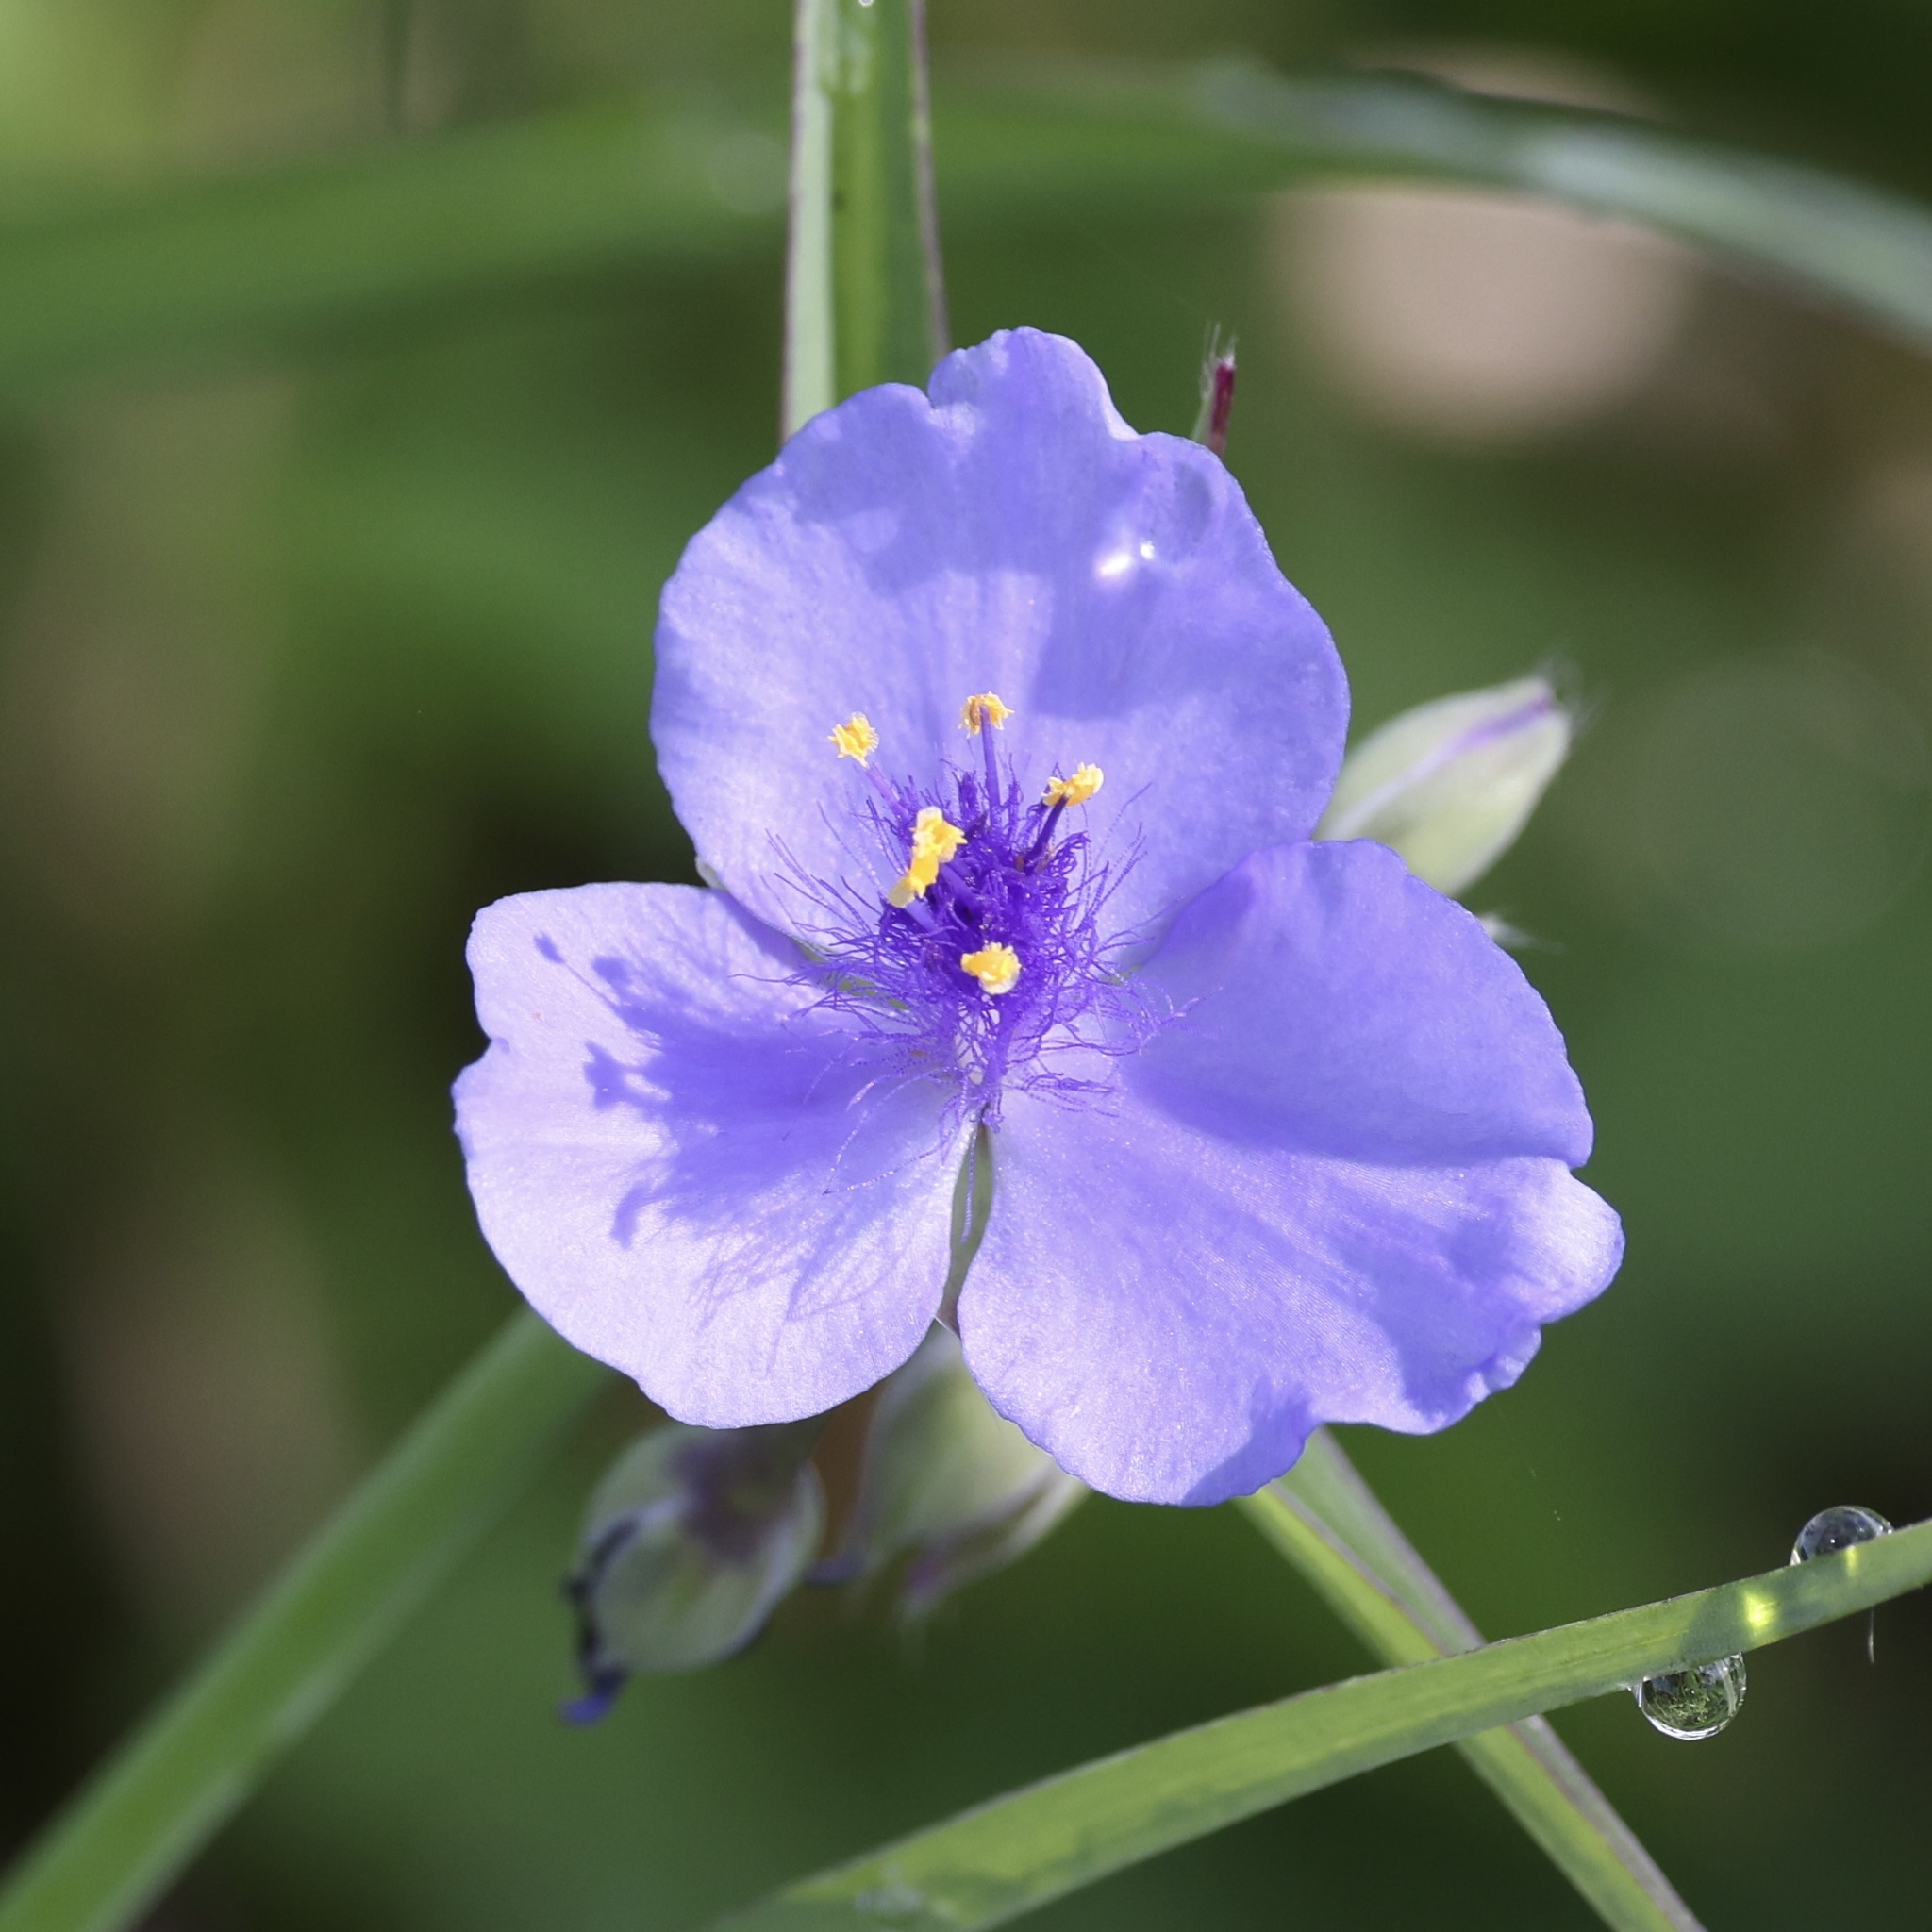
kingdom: Plantae
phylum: Tracheophyta
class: Liliopsida
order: Commelinales
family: Commelinaceae
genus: Tradescantia
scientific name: Tradescantia ohiensis
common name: Ohio spiderwort
